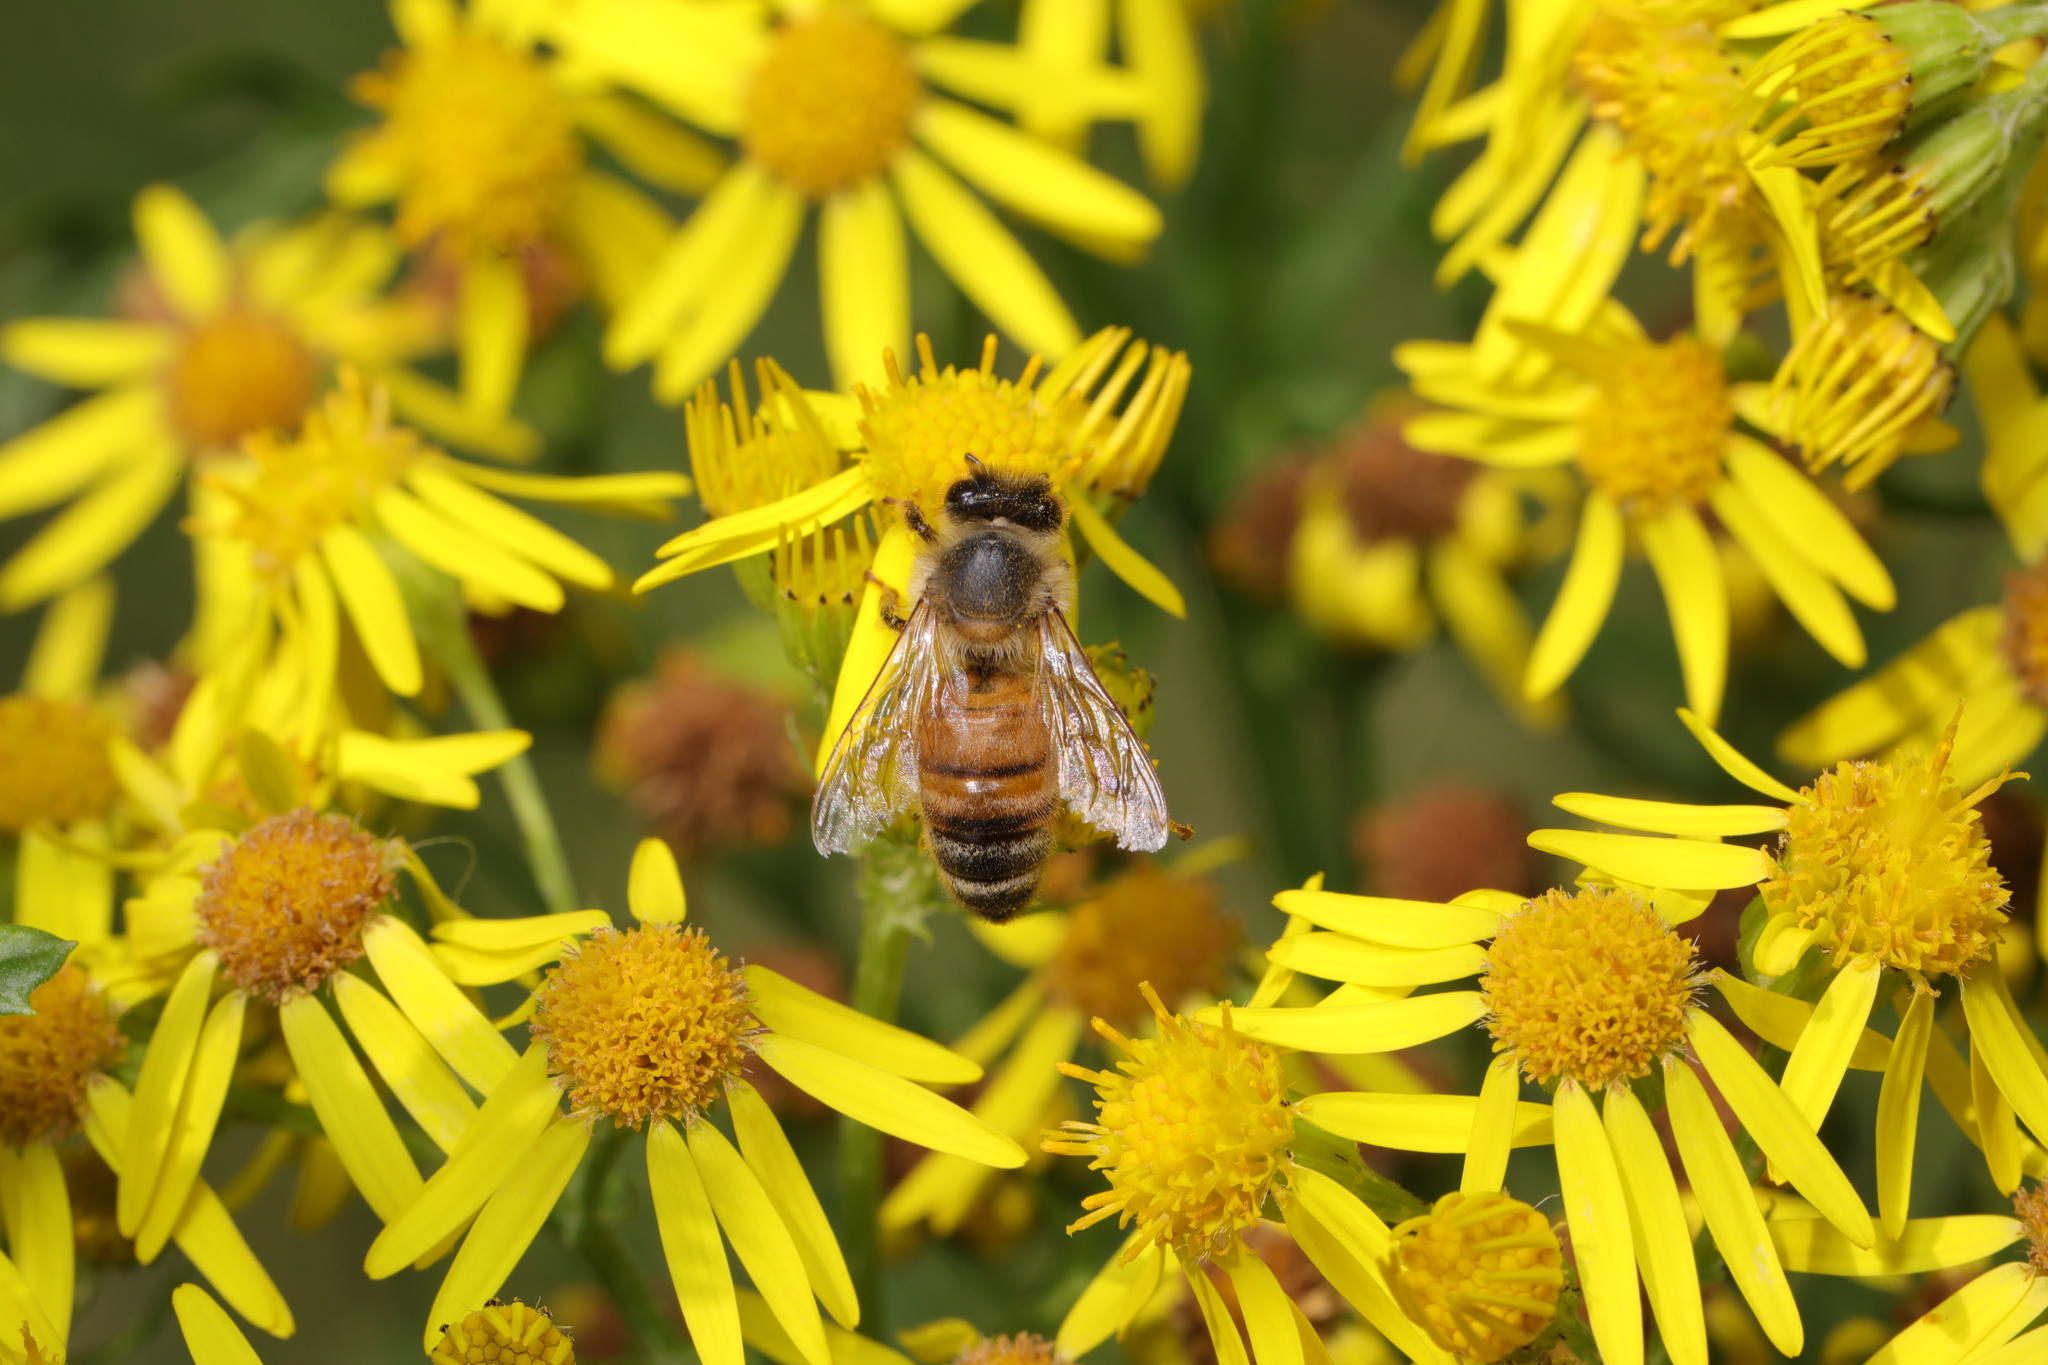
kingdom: Animalia
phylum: Arthropoda
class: Insecta
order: Hymenoptera
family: Apidae
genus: Apis
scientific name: Apis mellifera
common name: Honey bee
